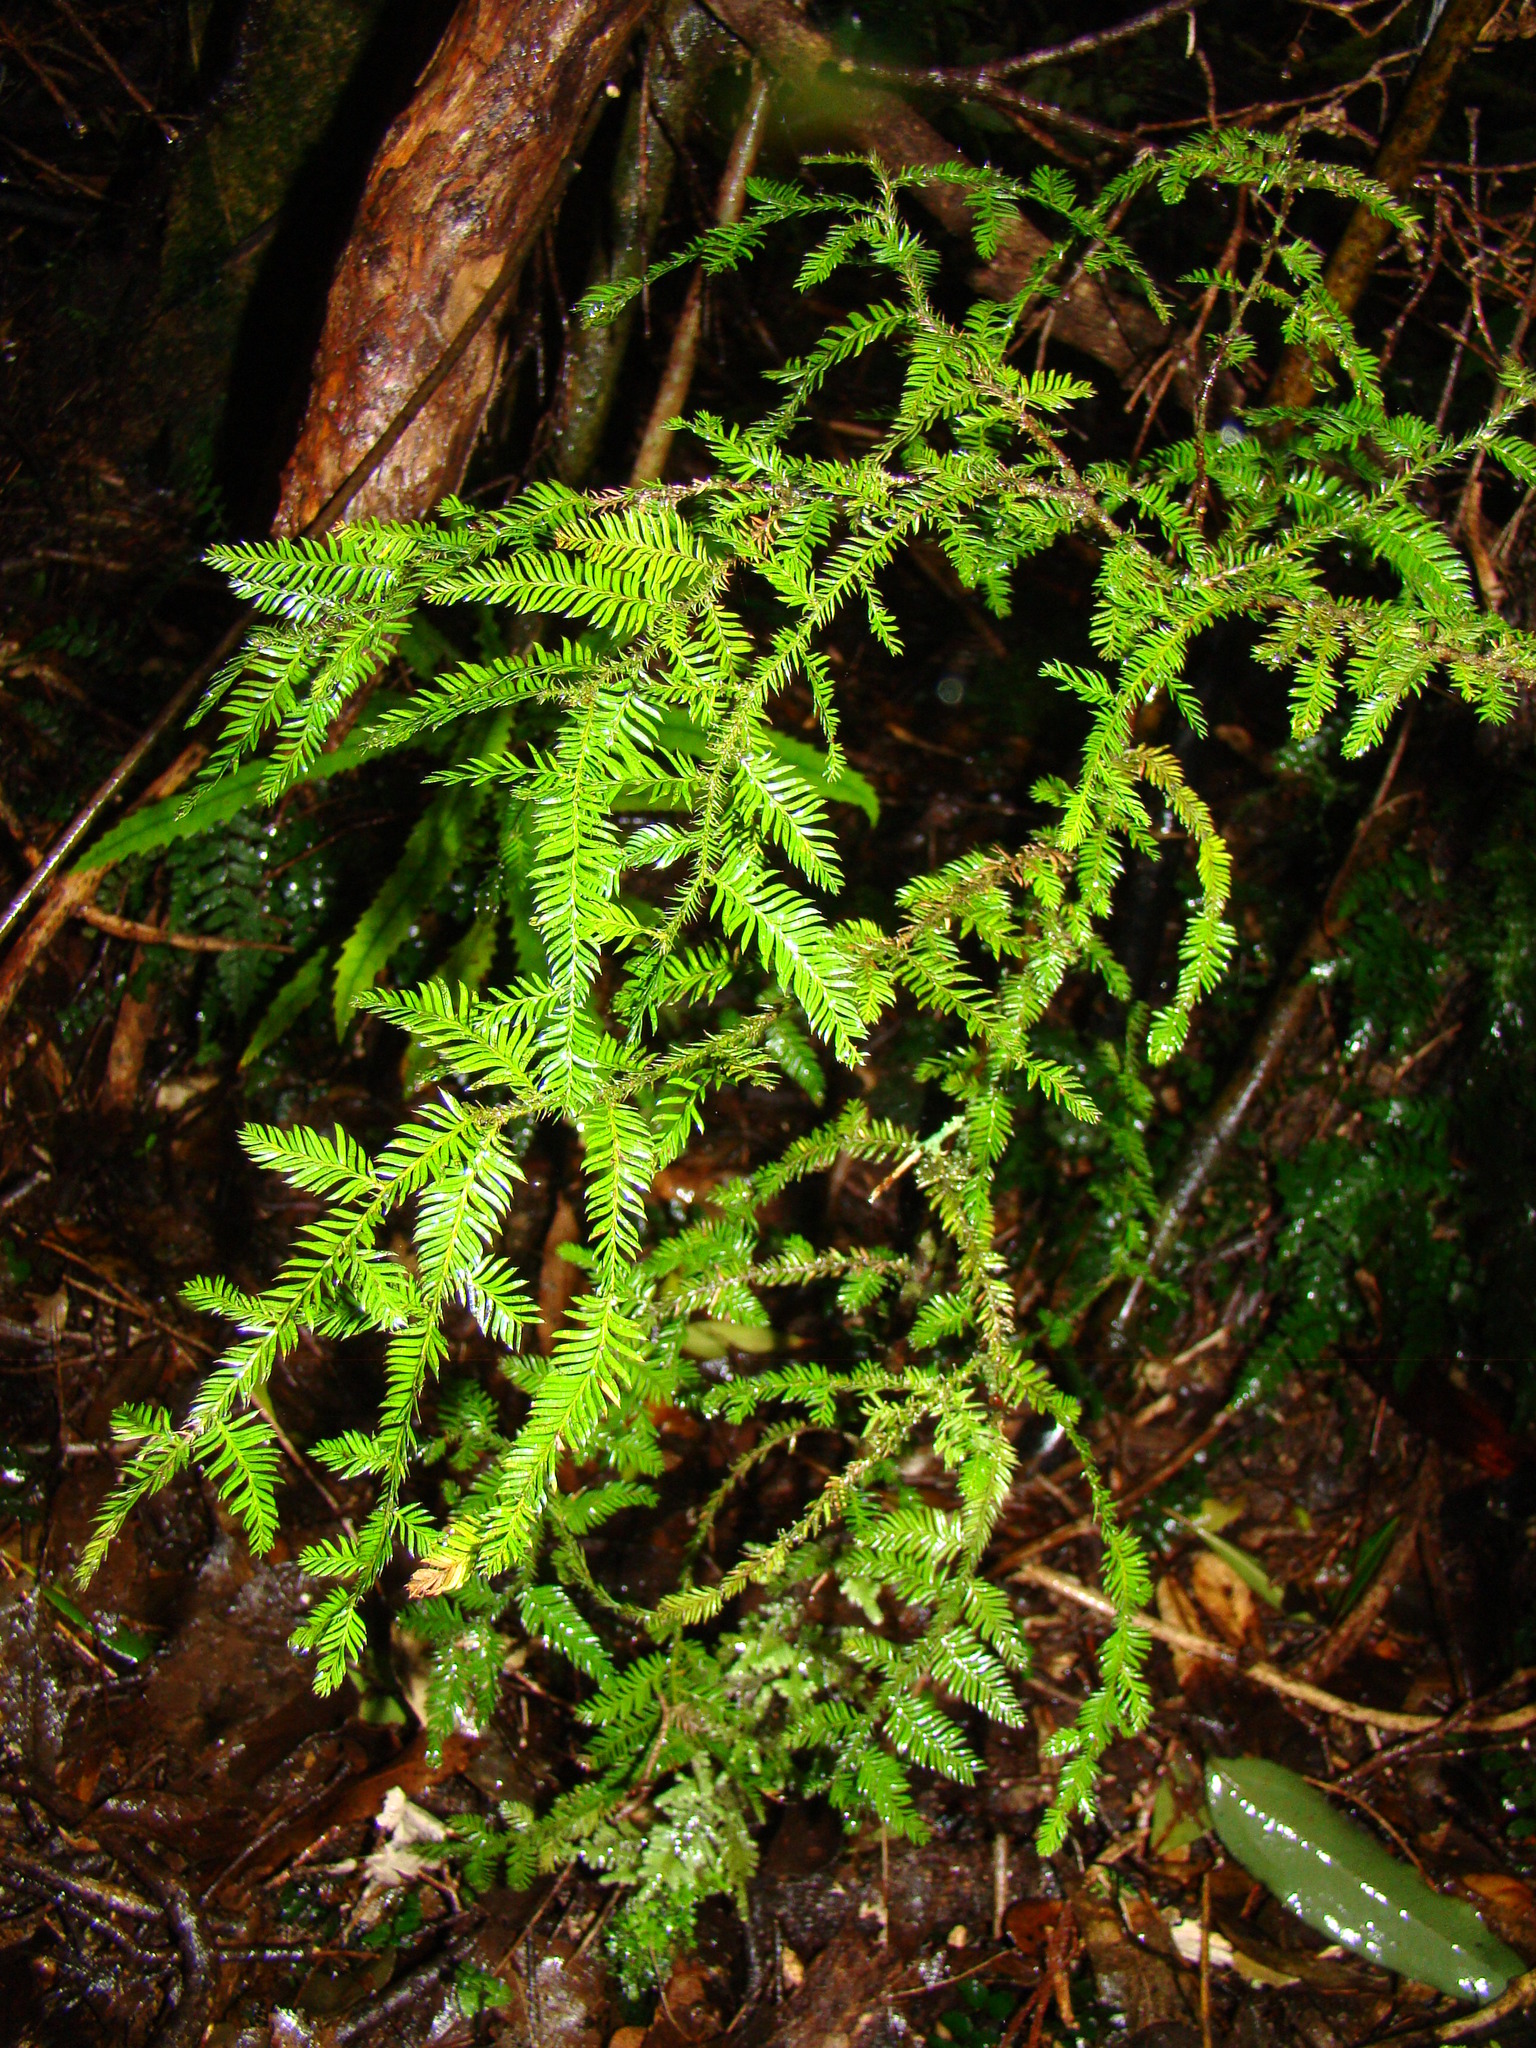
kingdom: Plantae
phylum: Tracheophyta
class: Pinopsida
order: Pinales
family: Podocarpaceae
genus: Dacrycarpus
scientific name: Dacrycarpus dacrydioides
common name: White pine
